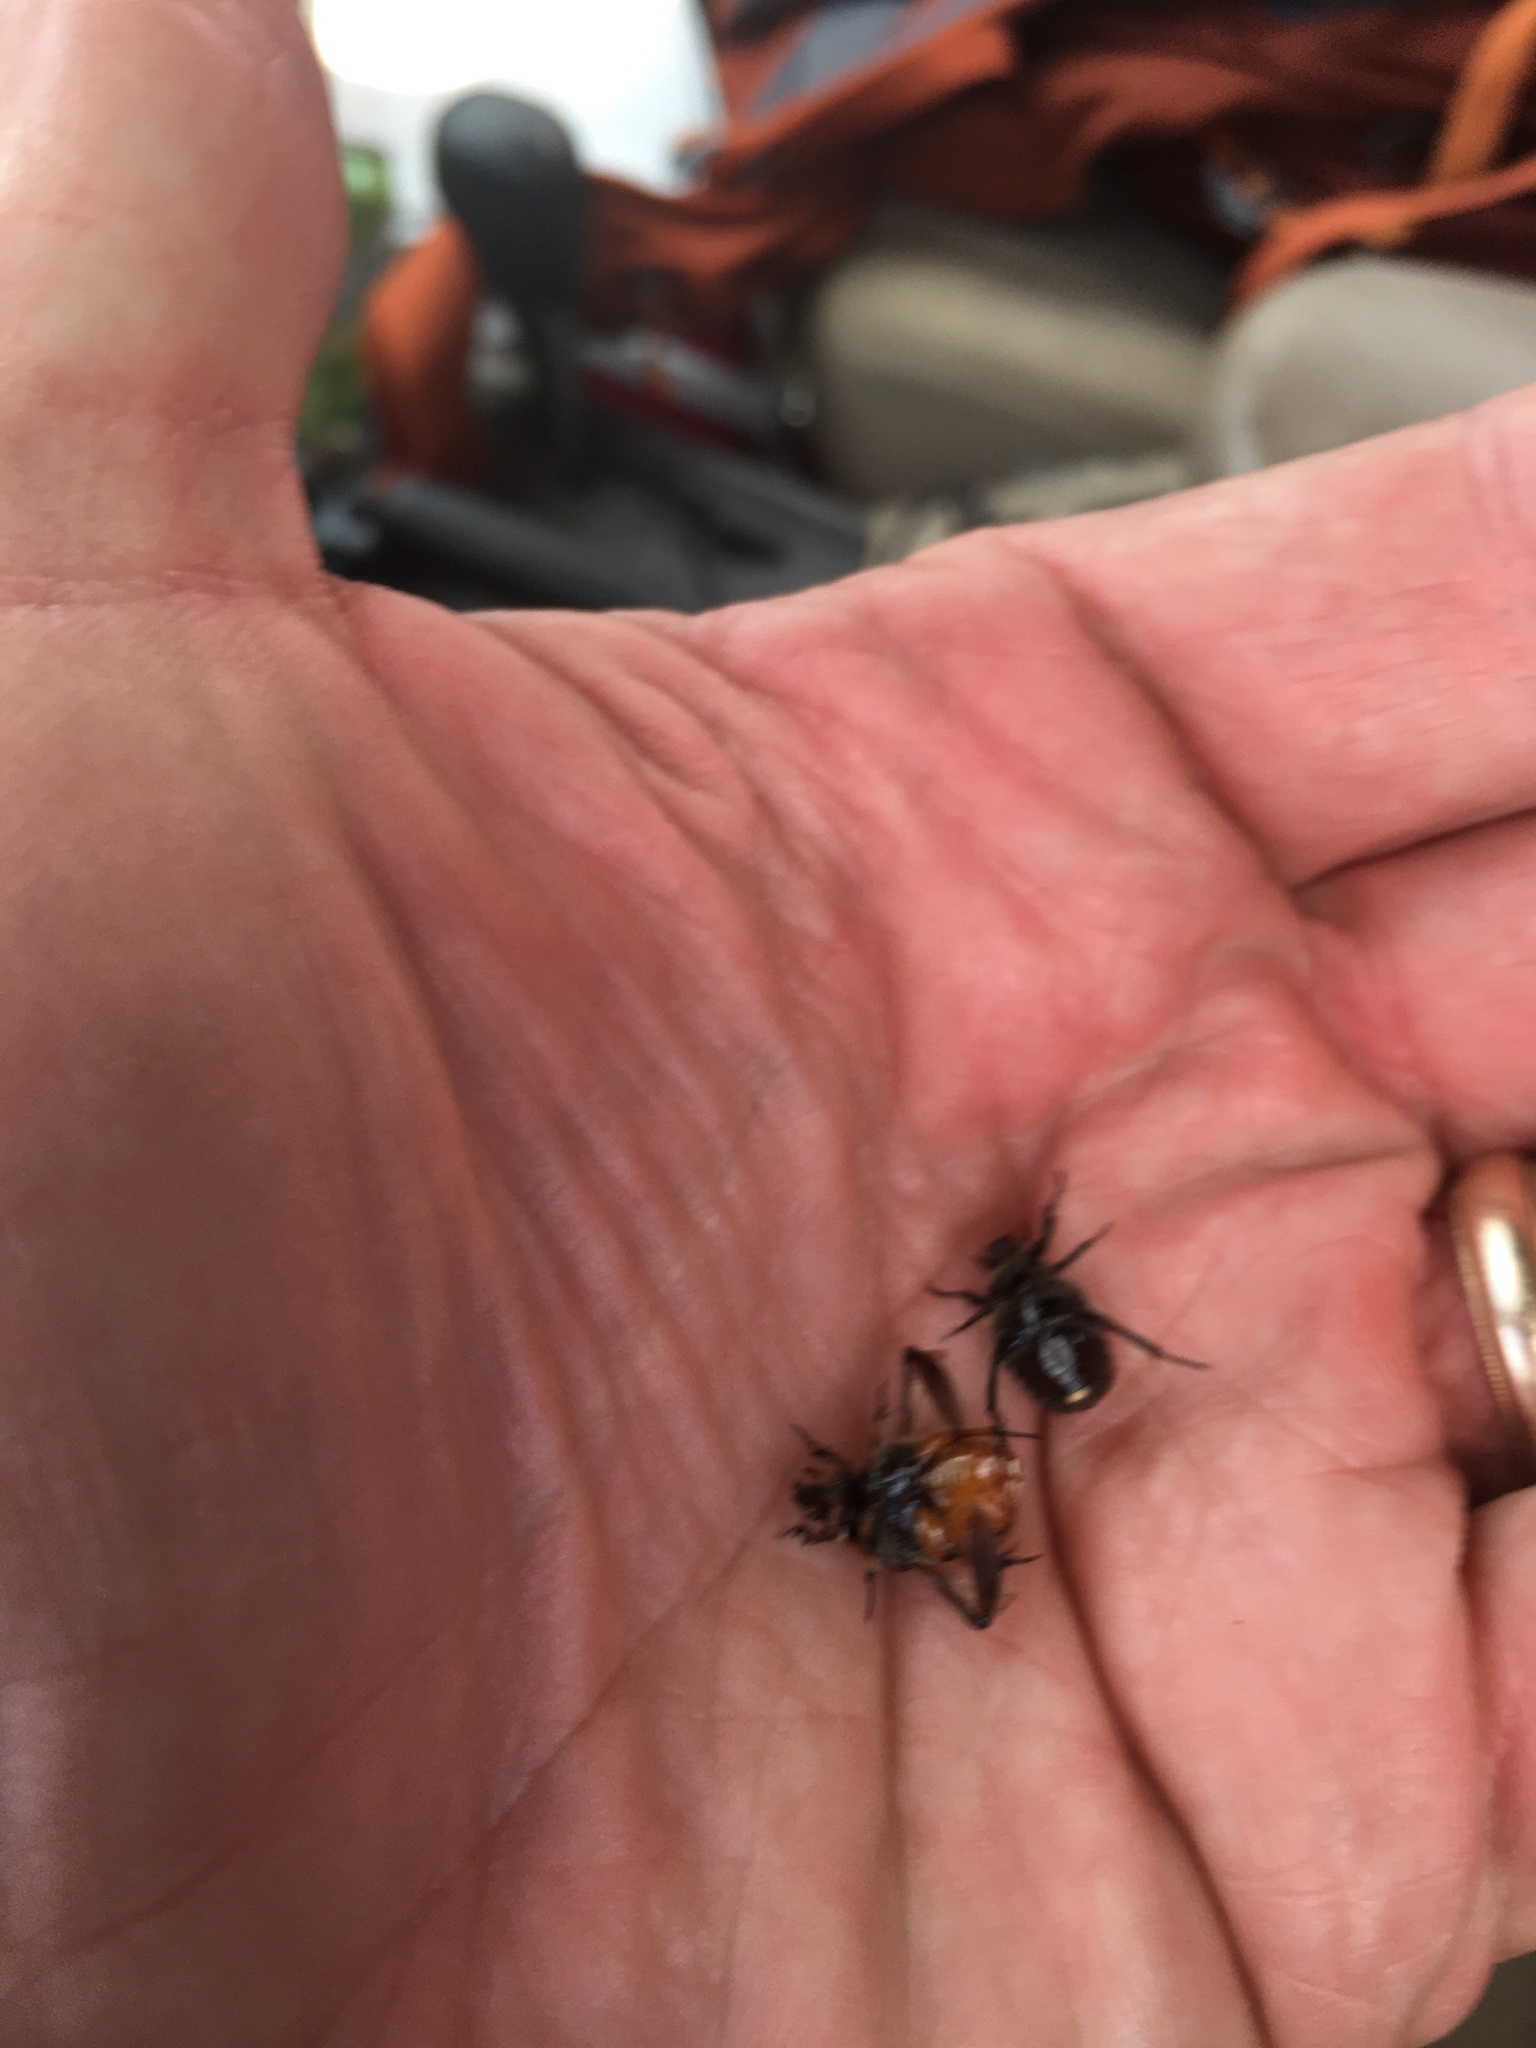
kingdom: Animalia
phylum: Arthropoda
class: Insecta
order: Coleoptera
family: Scarabaeidae
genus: Euphoria
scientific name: Euphoria kernii
